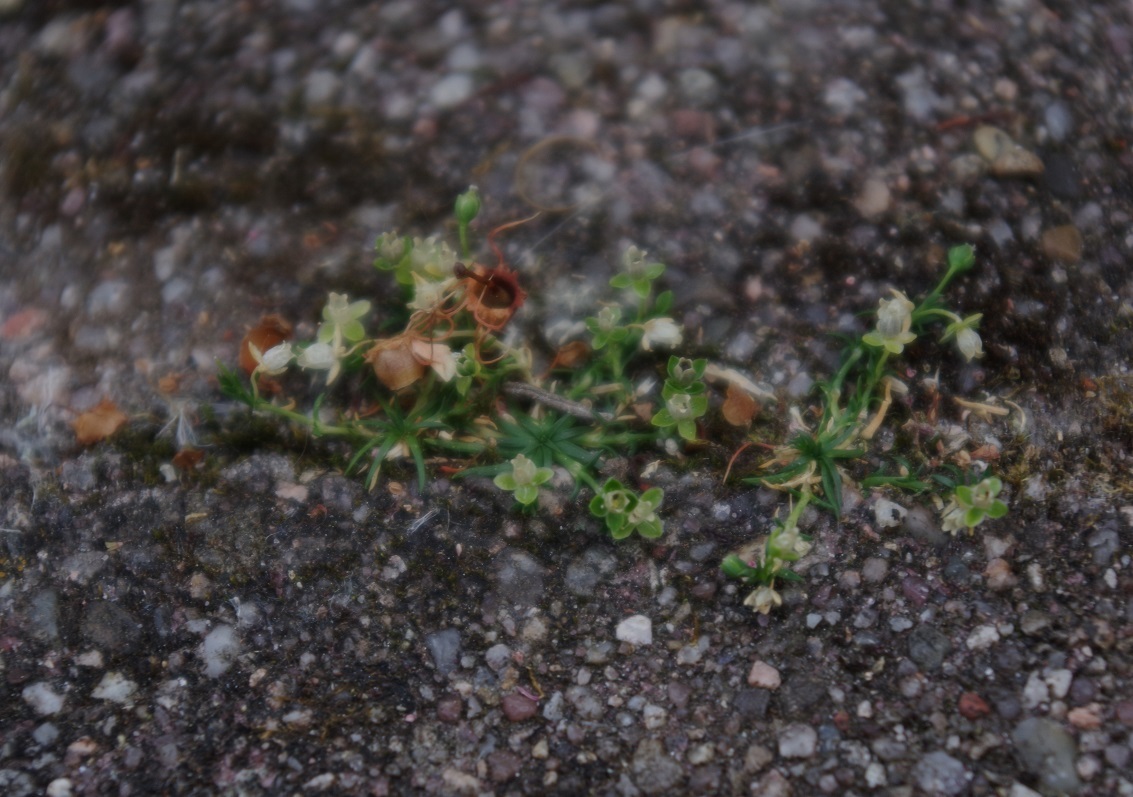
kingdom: Plantae
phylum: Tracheophyta
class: Magnoliopsida
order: Caryophyllales
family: Caryophyllaceae
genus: Sagina
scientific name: Sagina procumbens
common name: Procumbent pearlwort
